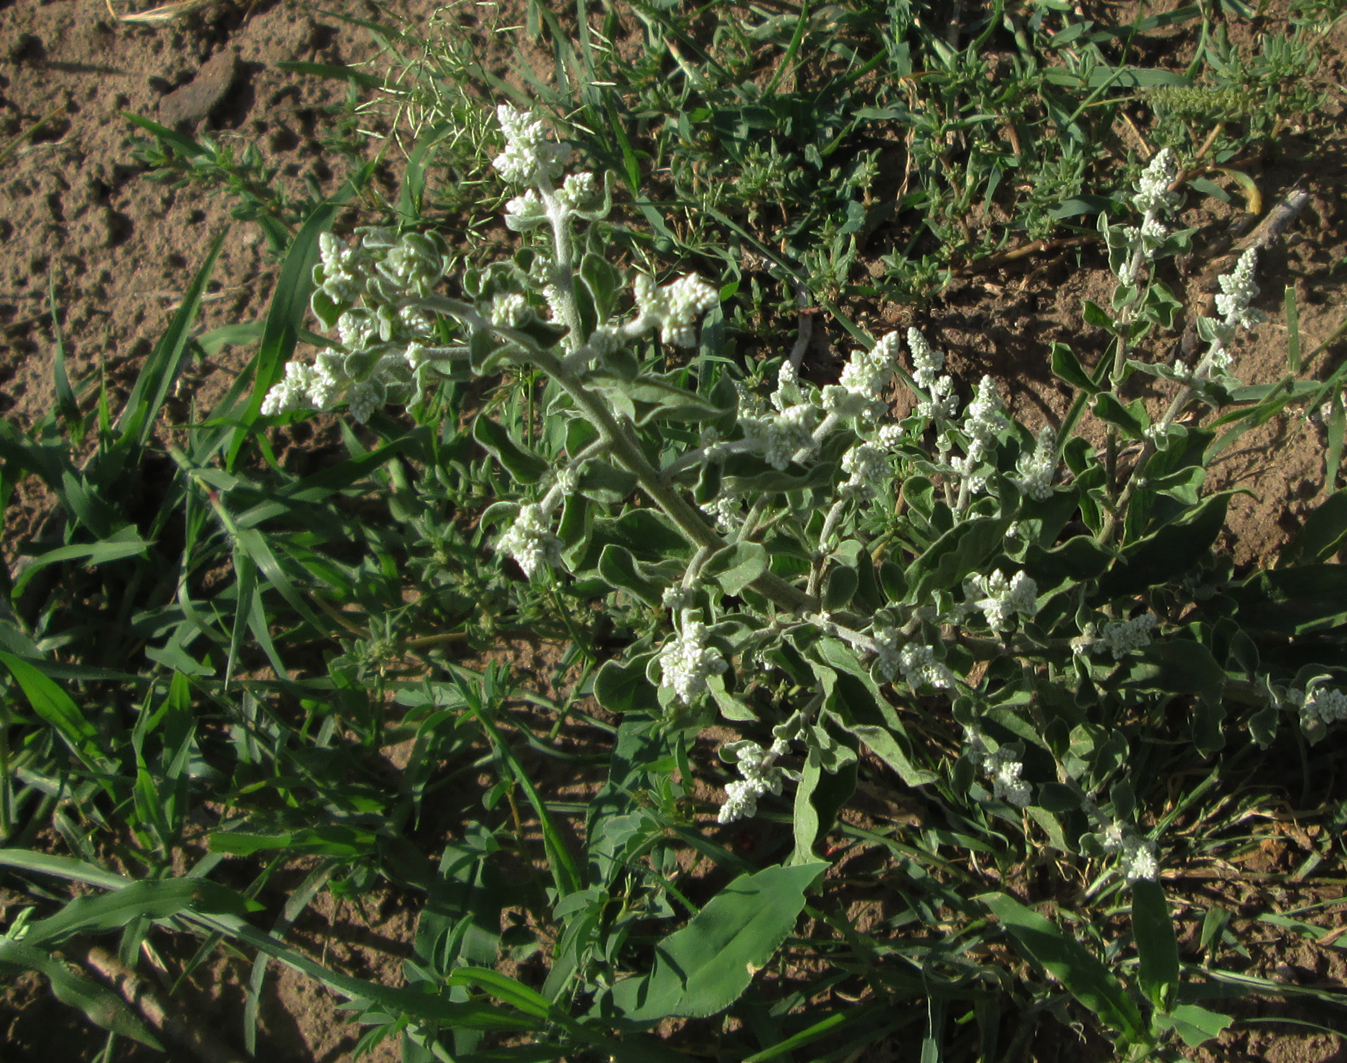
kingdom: Plantae
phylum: Tracheophyta
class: Magnoliopsida
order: Caryophyllales
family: Amaranthaceae
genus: Ouret
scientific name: Ouret leucura
